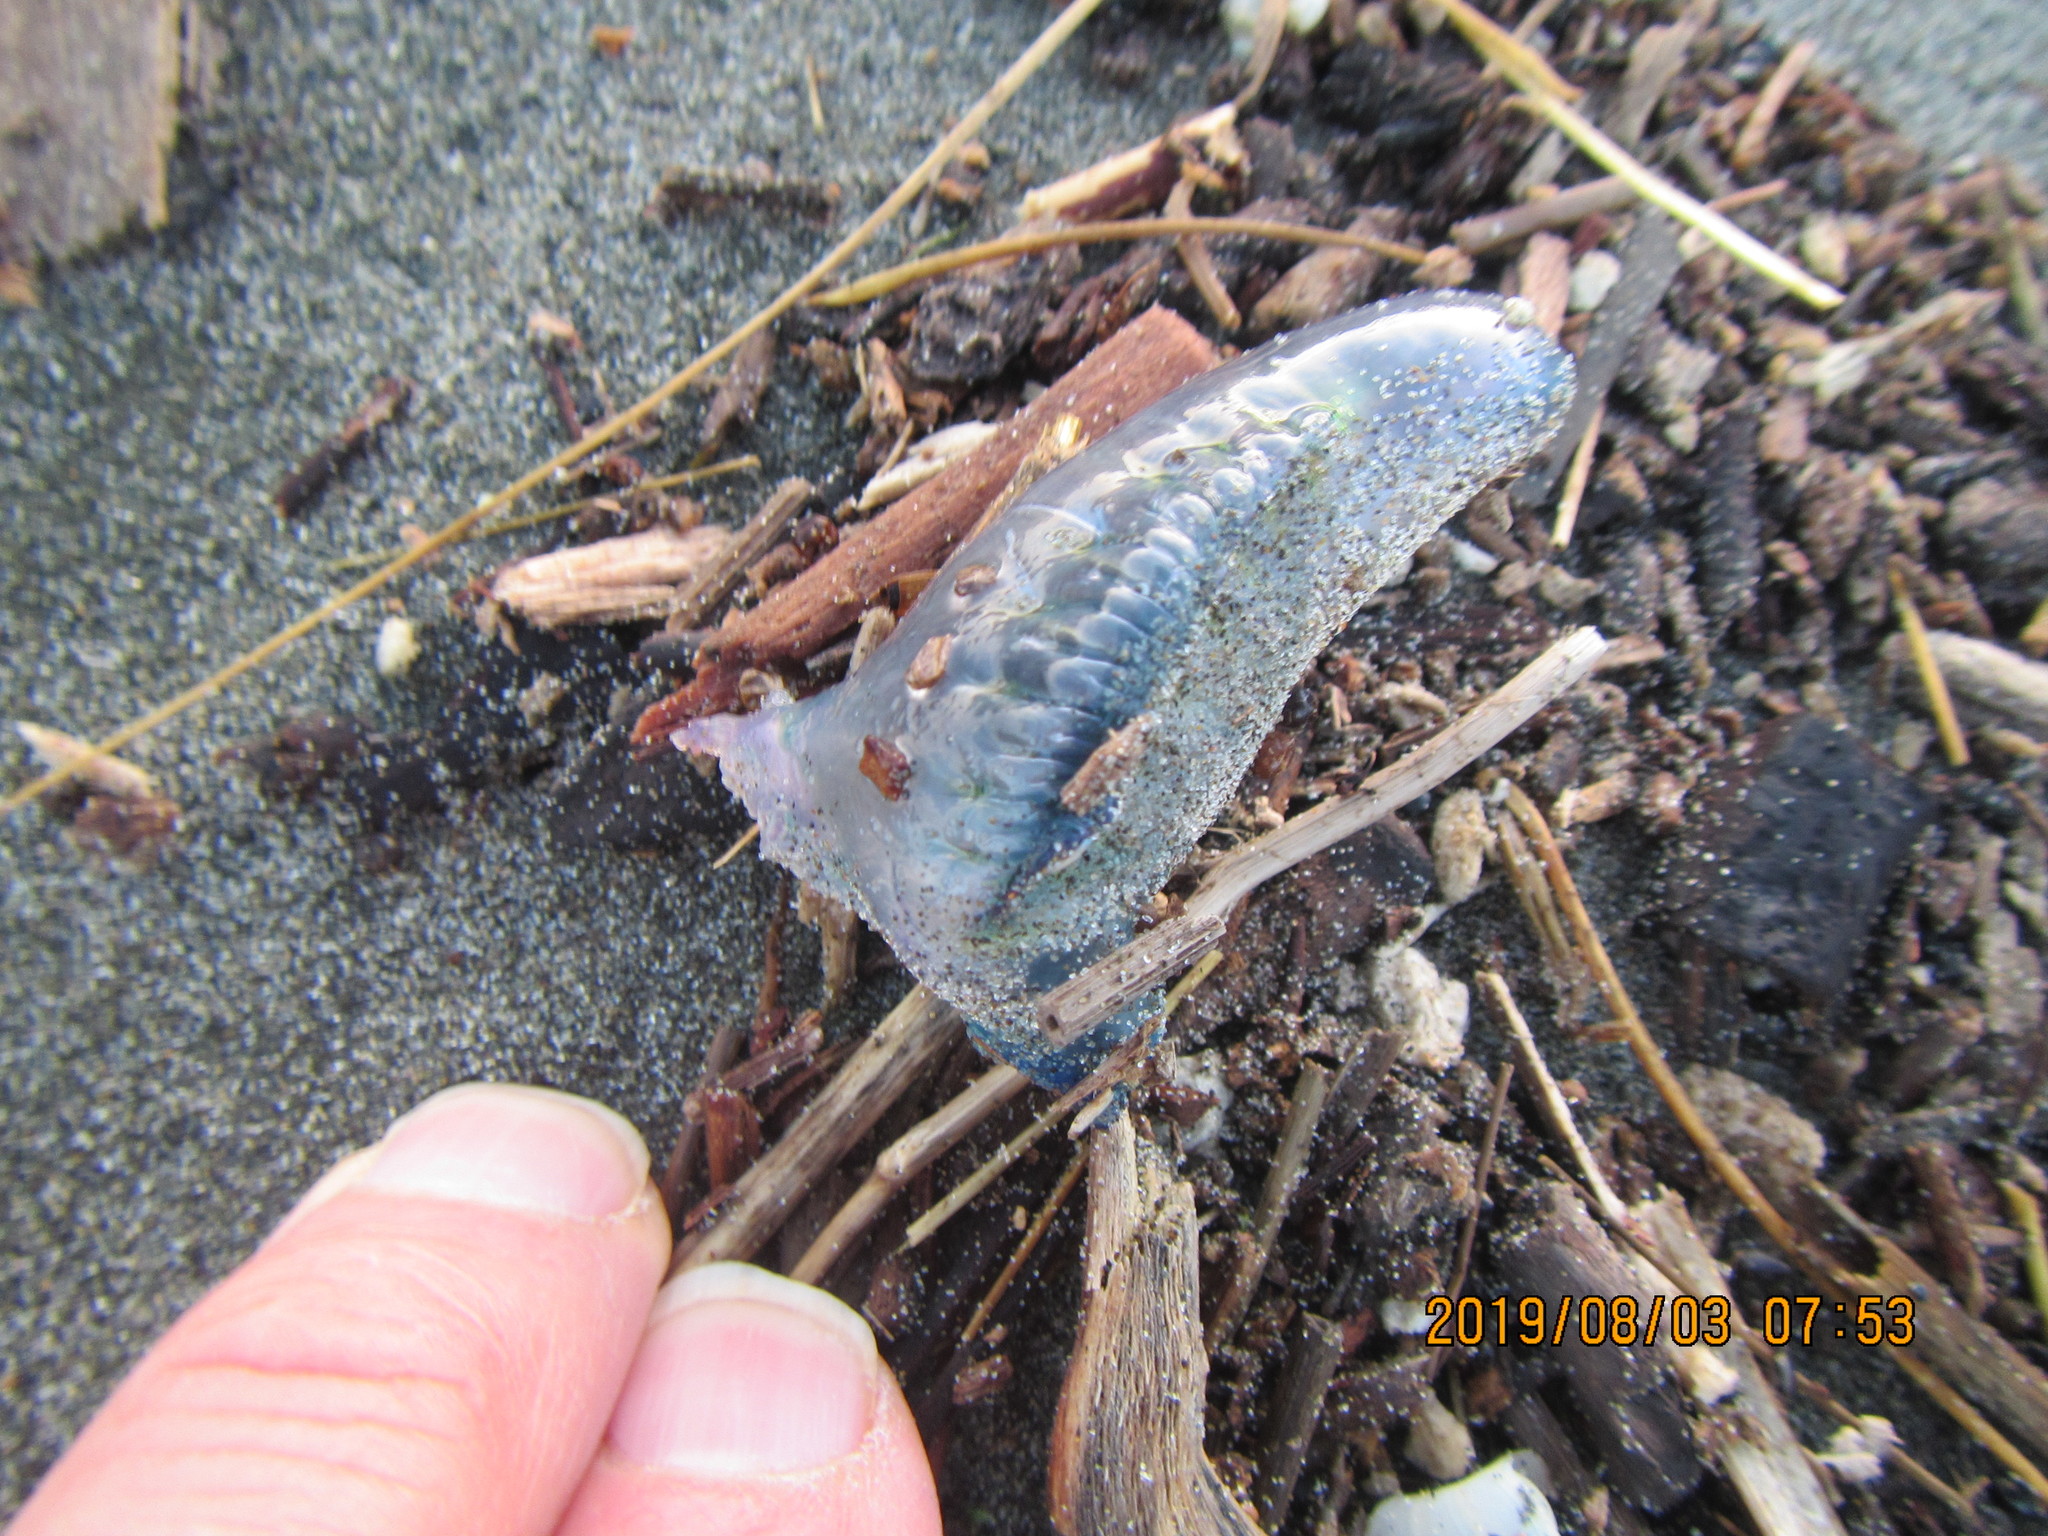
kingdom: Animalia
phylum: Cnidaria
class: Hydrozoa
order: Siphonophorae
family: Physaliidae
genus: Physalia
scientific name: Physalia physalis
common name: Portuguese man-of-war
